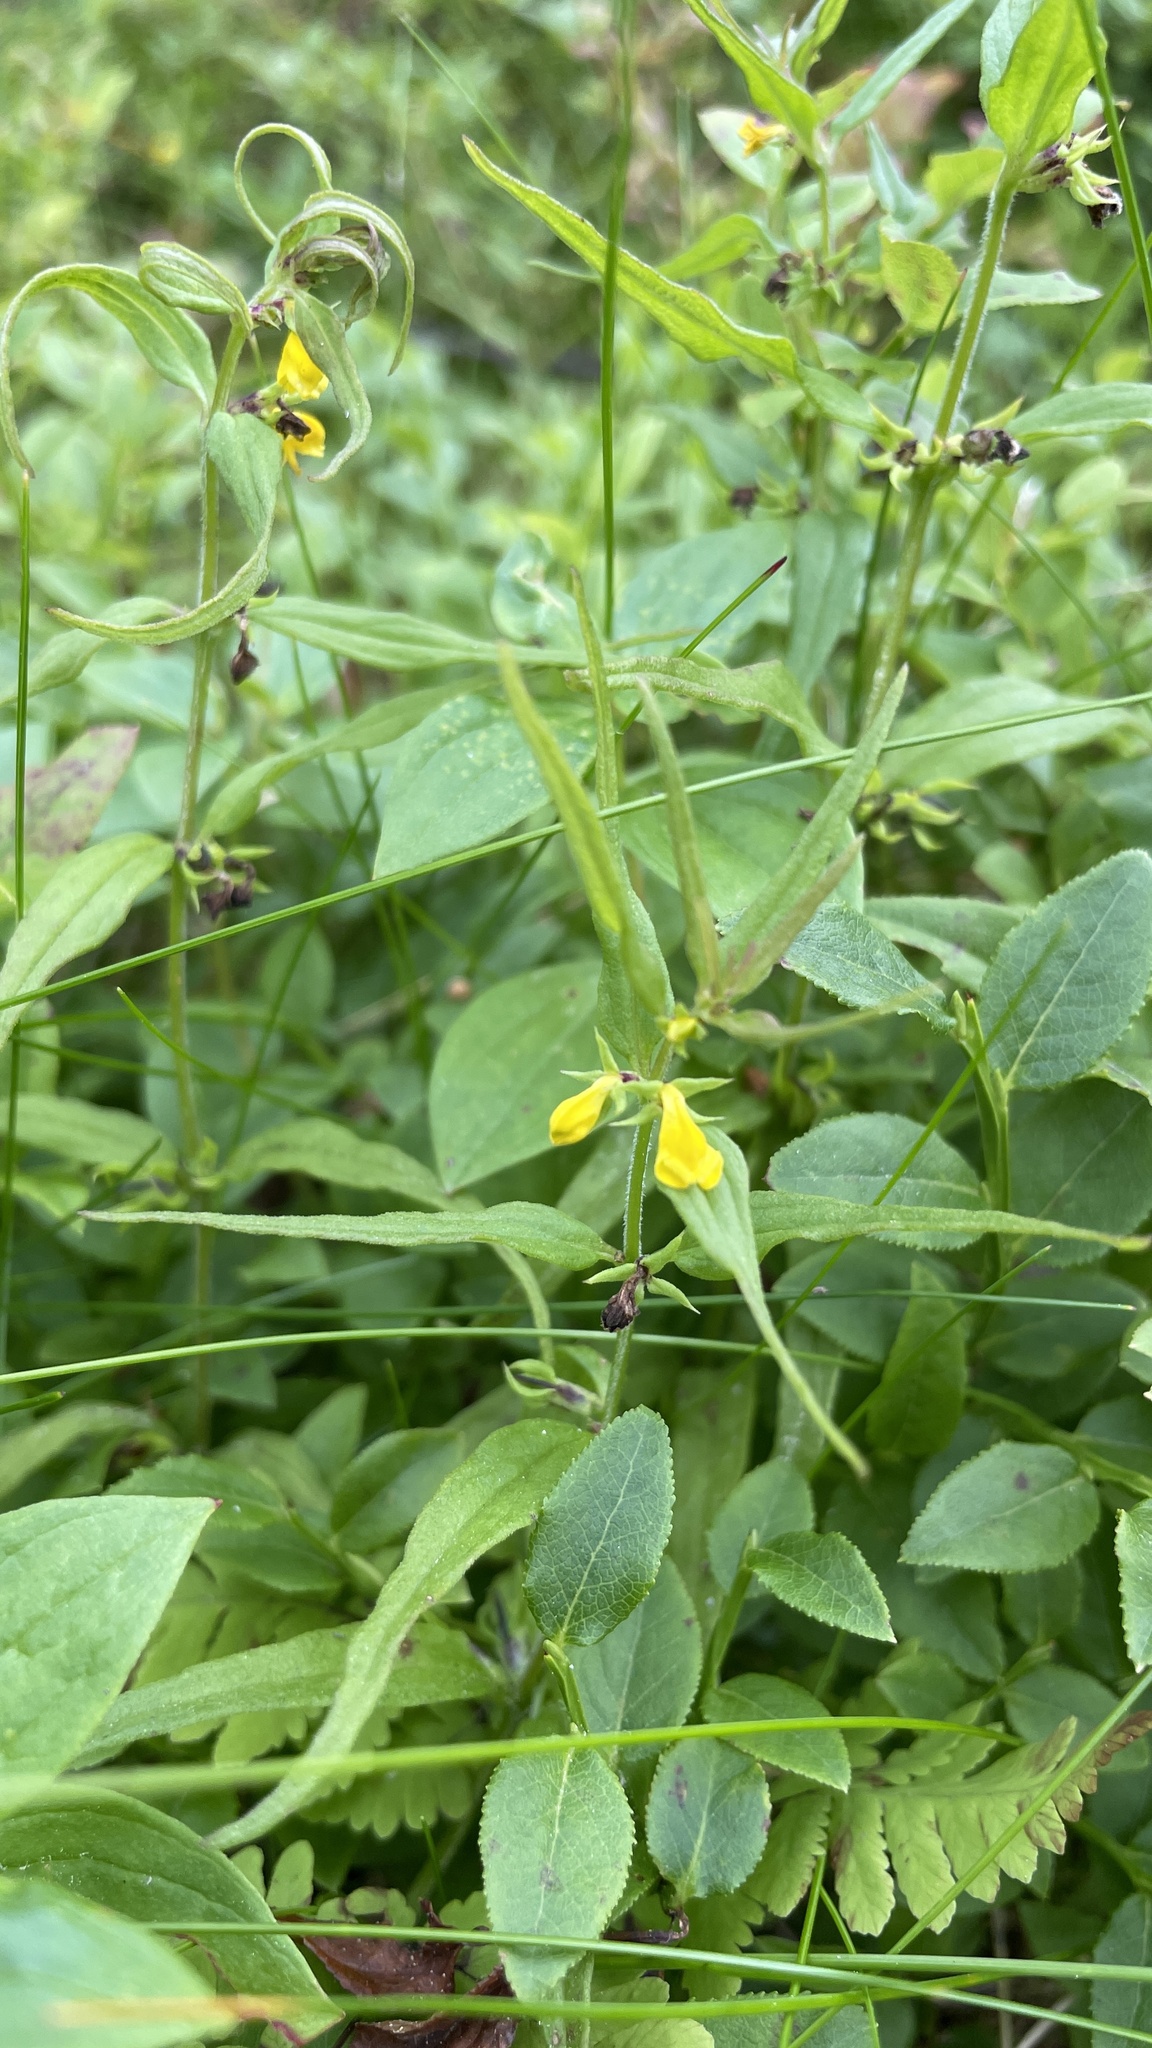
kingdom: Plantae
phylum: Tracheophyta
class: Magnoliopsida
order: Lamiales
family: Orobanchaceae
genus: Melampyrum
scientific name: Melampyrum sylvaticum
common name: Small cow-wheat
